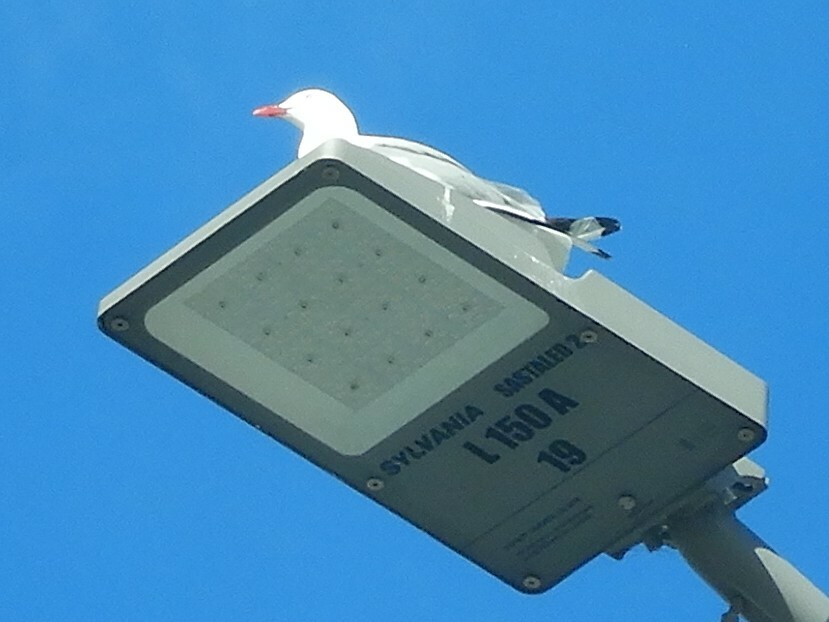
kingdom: Animalia
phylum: Chordata
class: Aves
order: Charadriiformes
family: Laridae
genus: Chroicocephalus
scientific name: Chroicocephalus novaehollandiae
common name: Silver gull
